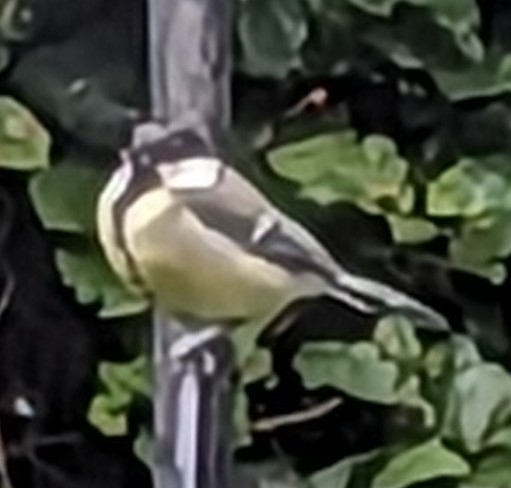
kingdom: Animalia
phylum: Chordata
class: Aves
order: Passeriformes
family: Paridae
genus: Parus
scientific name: Parus major
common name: Great tit
